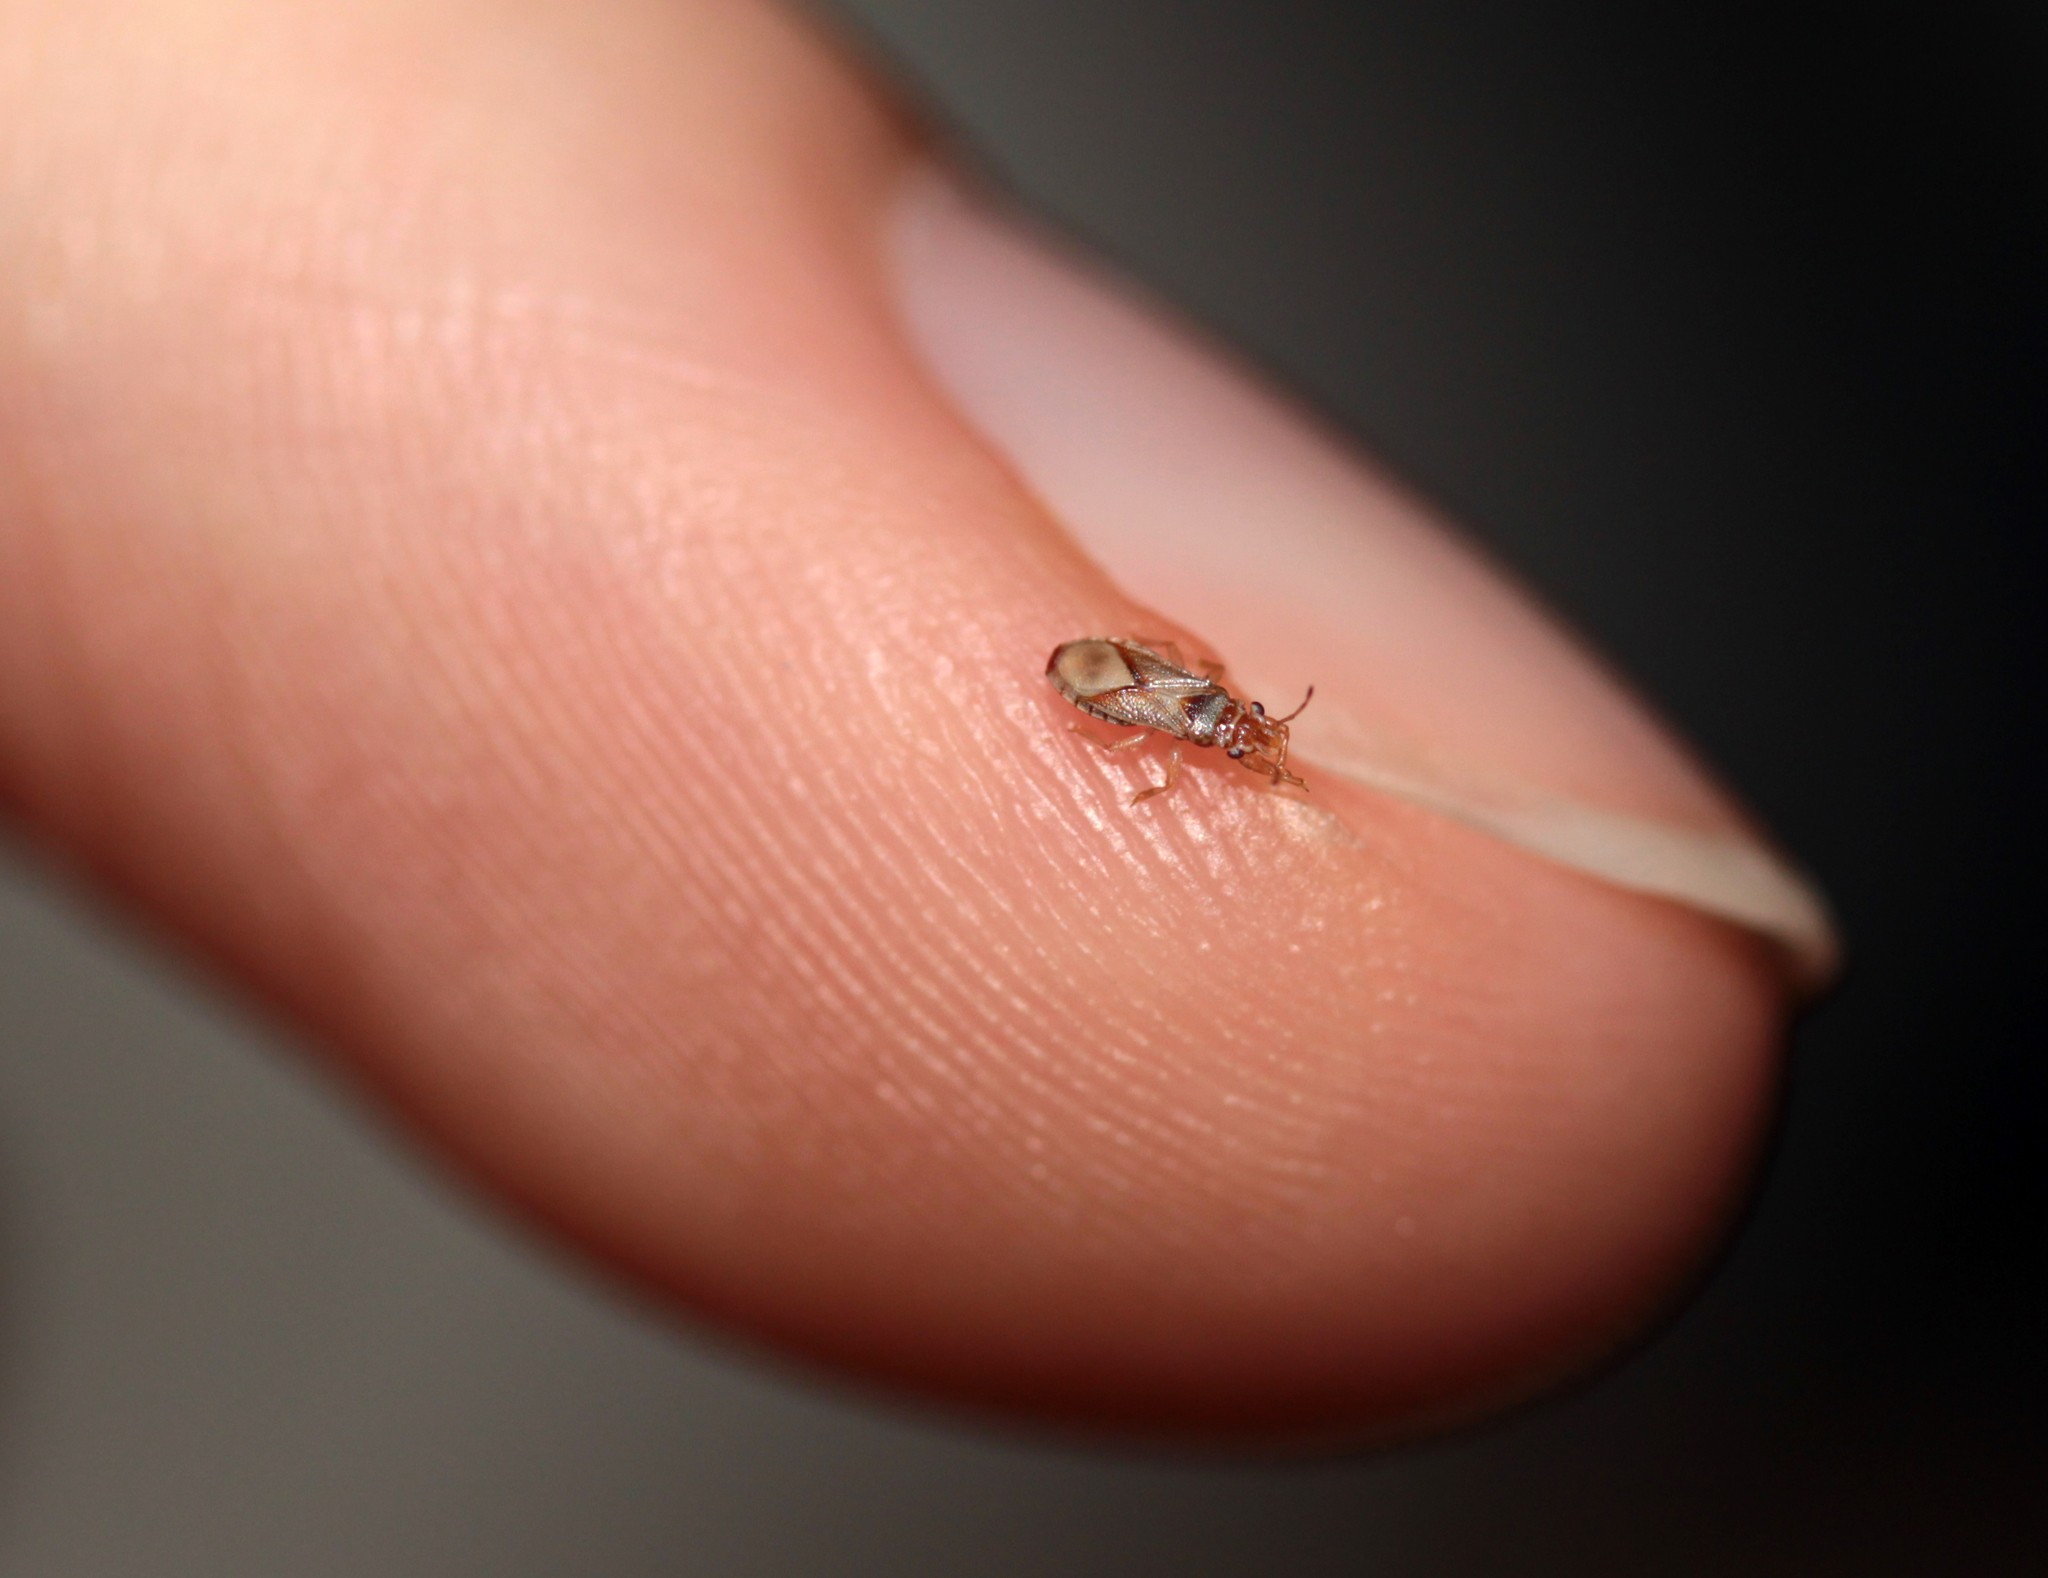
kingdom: Animalia
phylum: Arthropoda
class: Insecta
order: Hemiptera
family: Thaumastocoridae
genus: Thaumastocoris
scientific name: Thaumastocoris peregrinus
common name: Bronze bug
